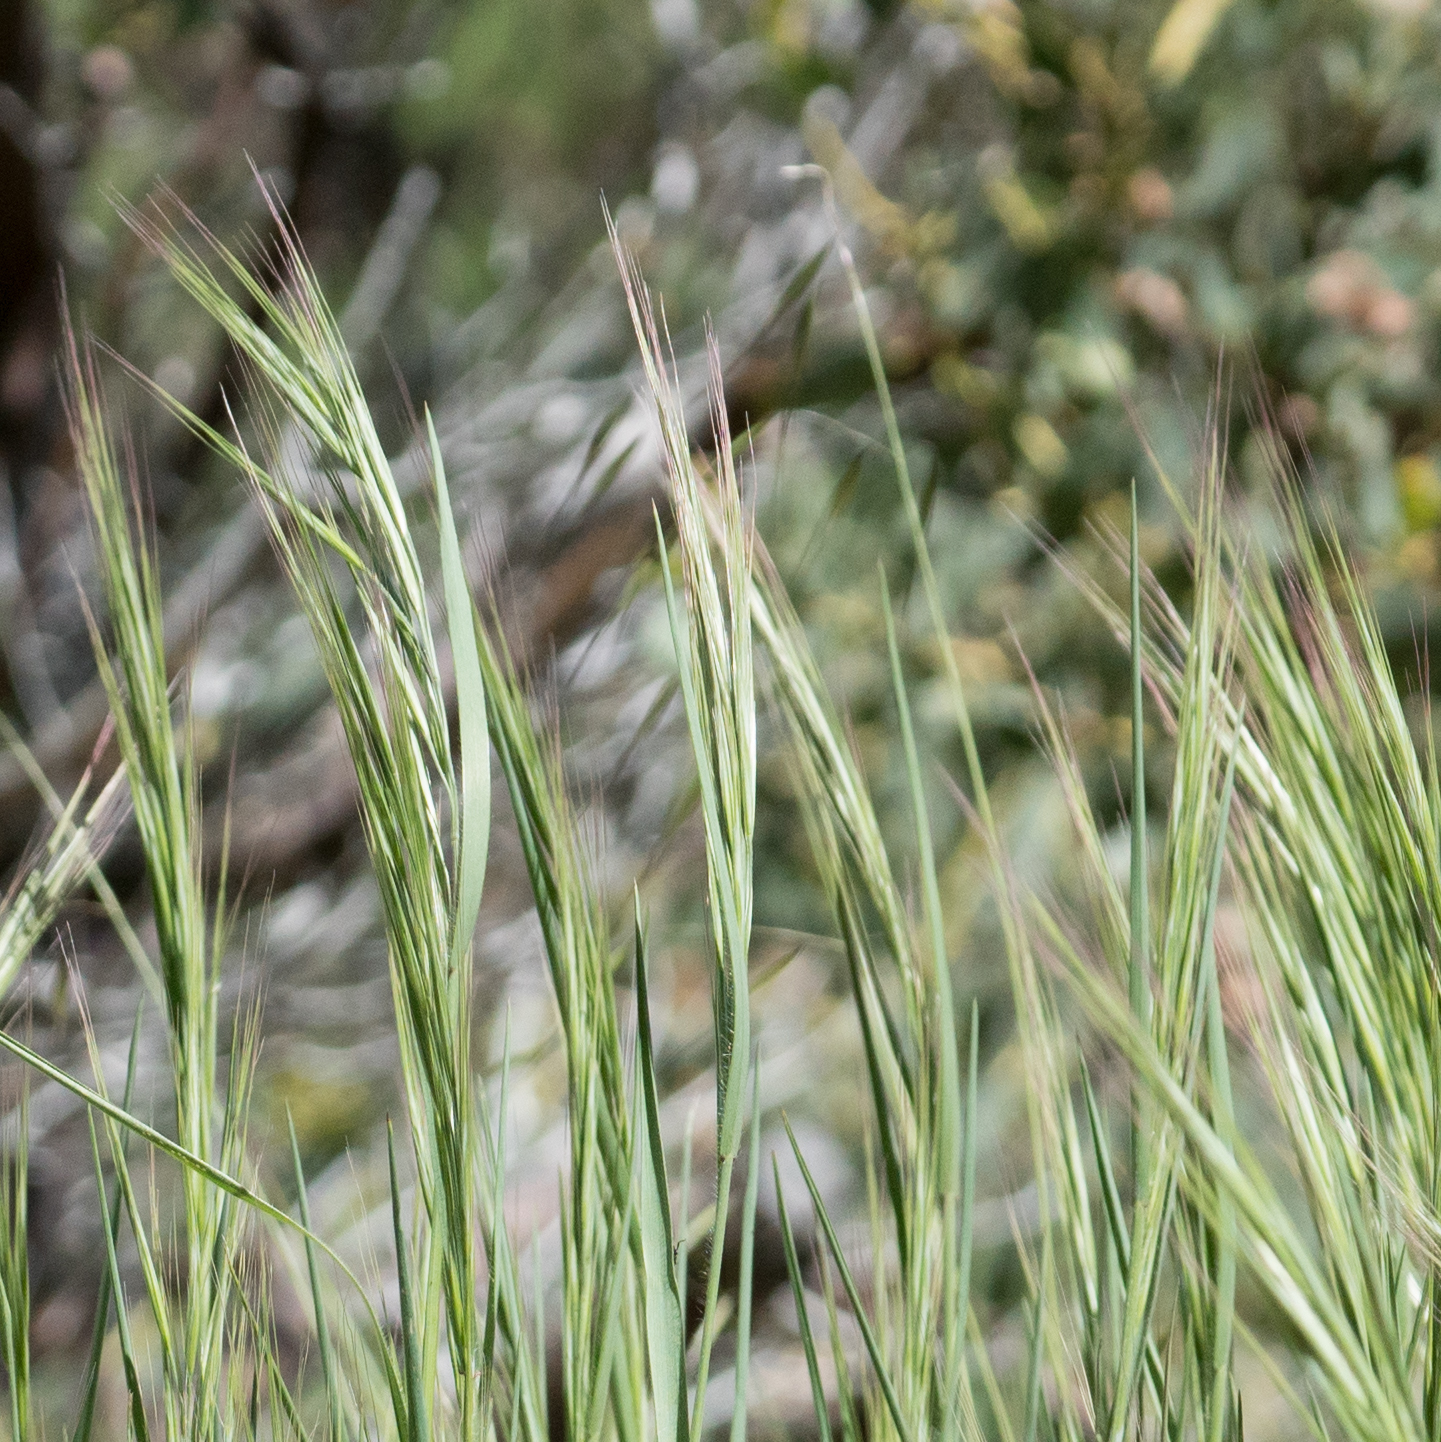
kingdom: Plantae
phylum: Tracheophyta
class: Liliopsida
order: Poales
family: Poaceae
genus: Bromus
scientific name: Bromus diandrus
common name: Ripgut brome
